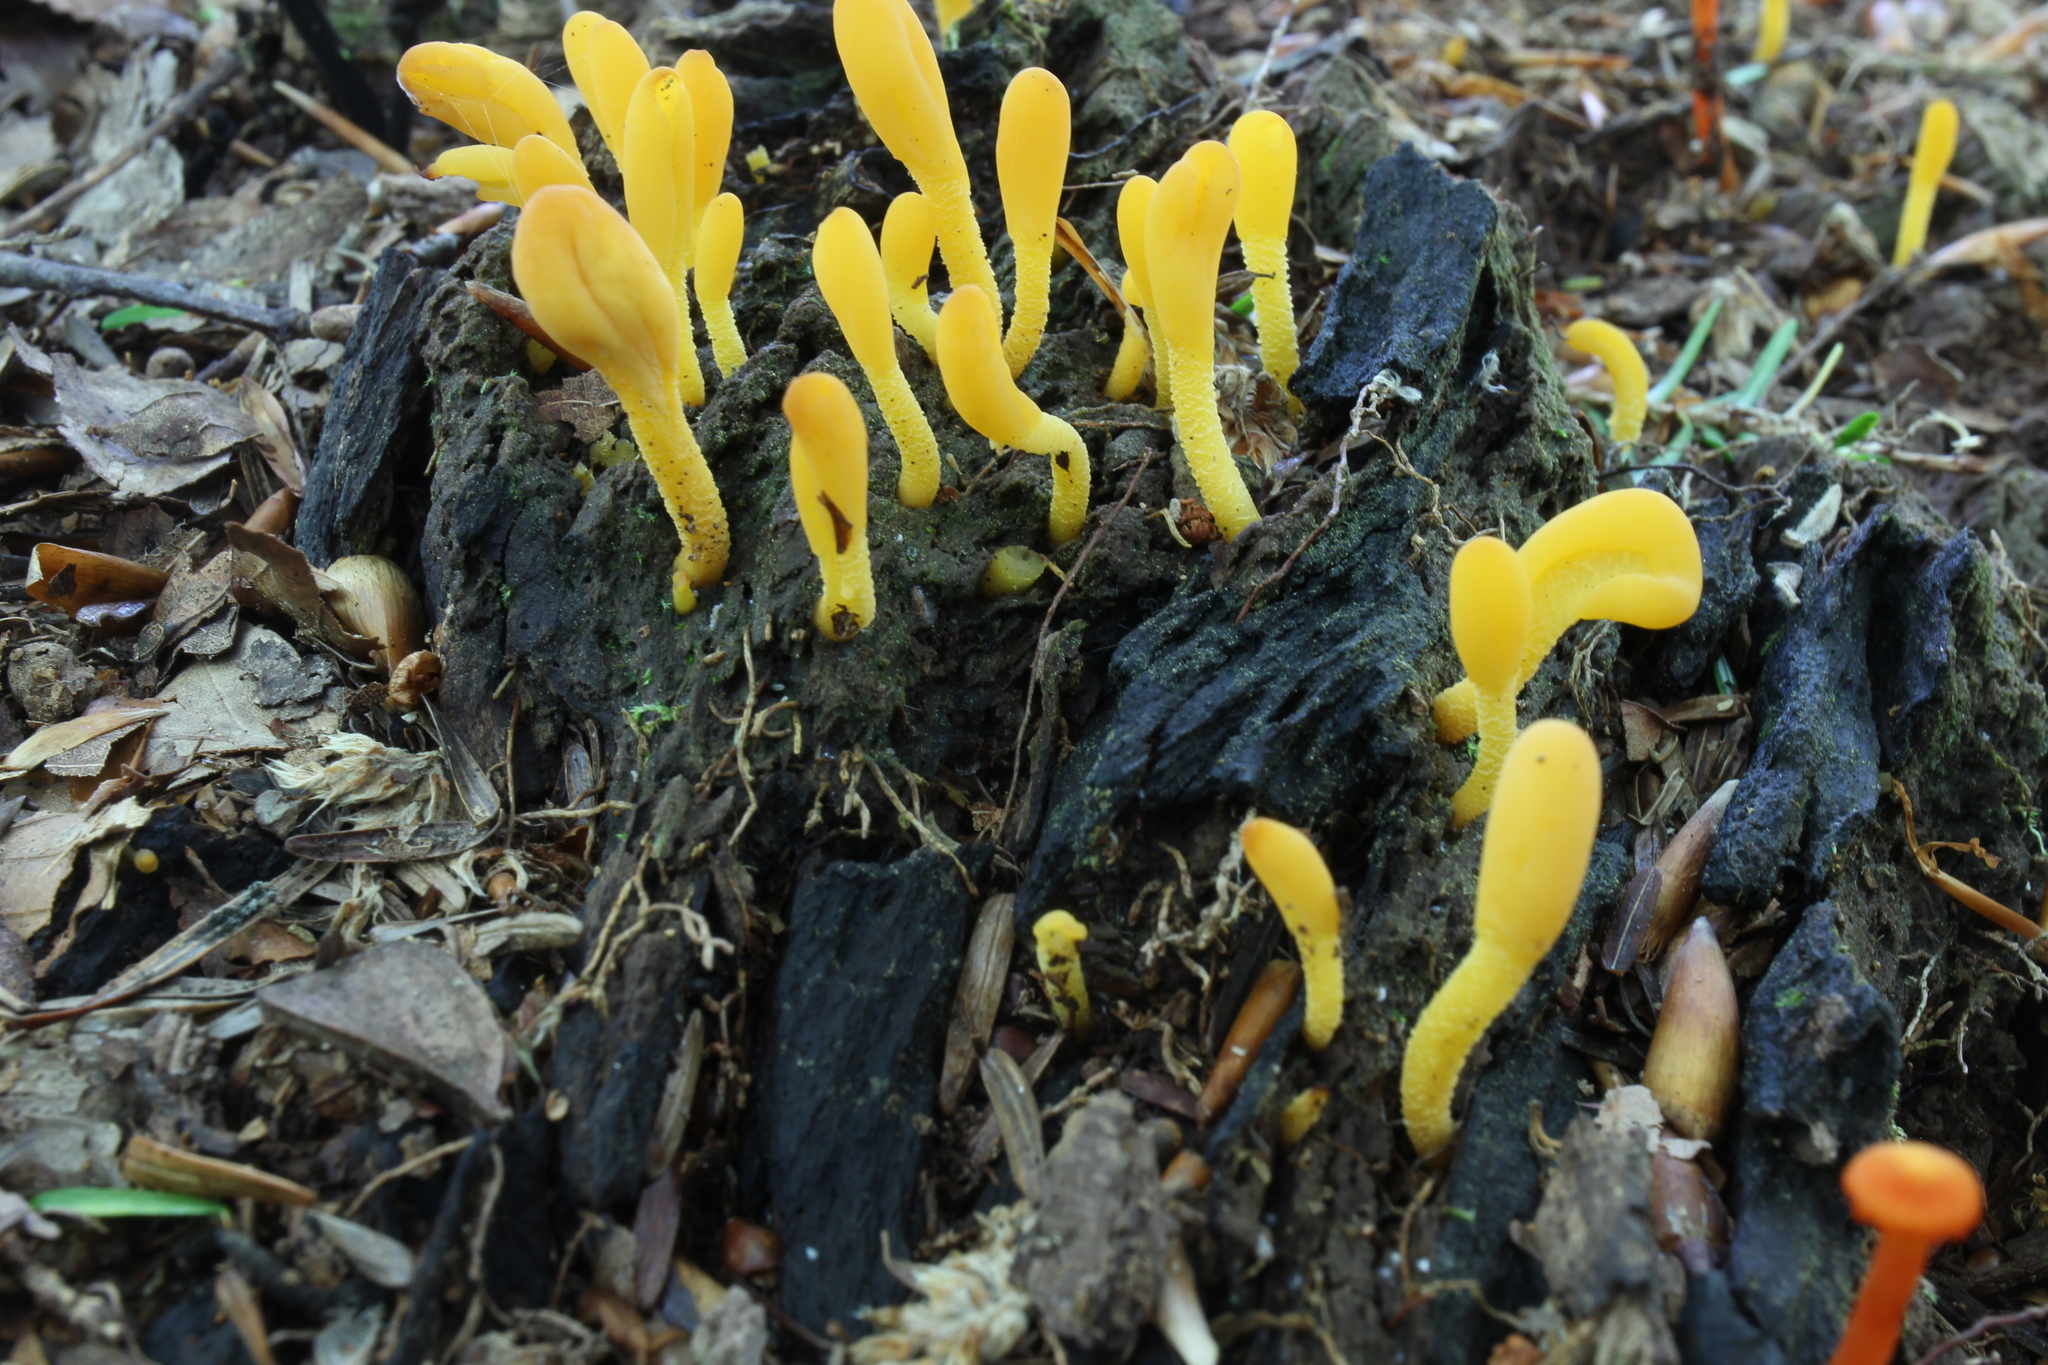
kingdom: Fungi
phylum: Ascomycota
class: Leotiomycetes
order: Leotiales
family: Leotiaceae
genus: Microglossum
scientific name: Microglossum rufum
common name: Orange earthtongue
